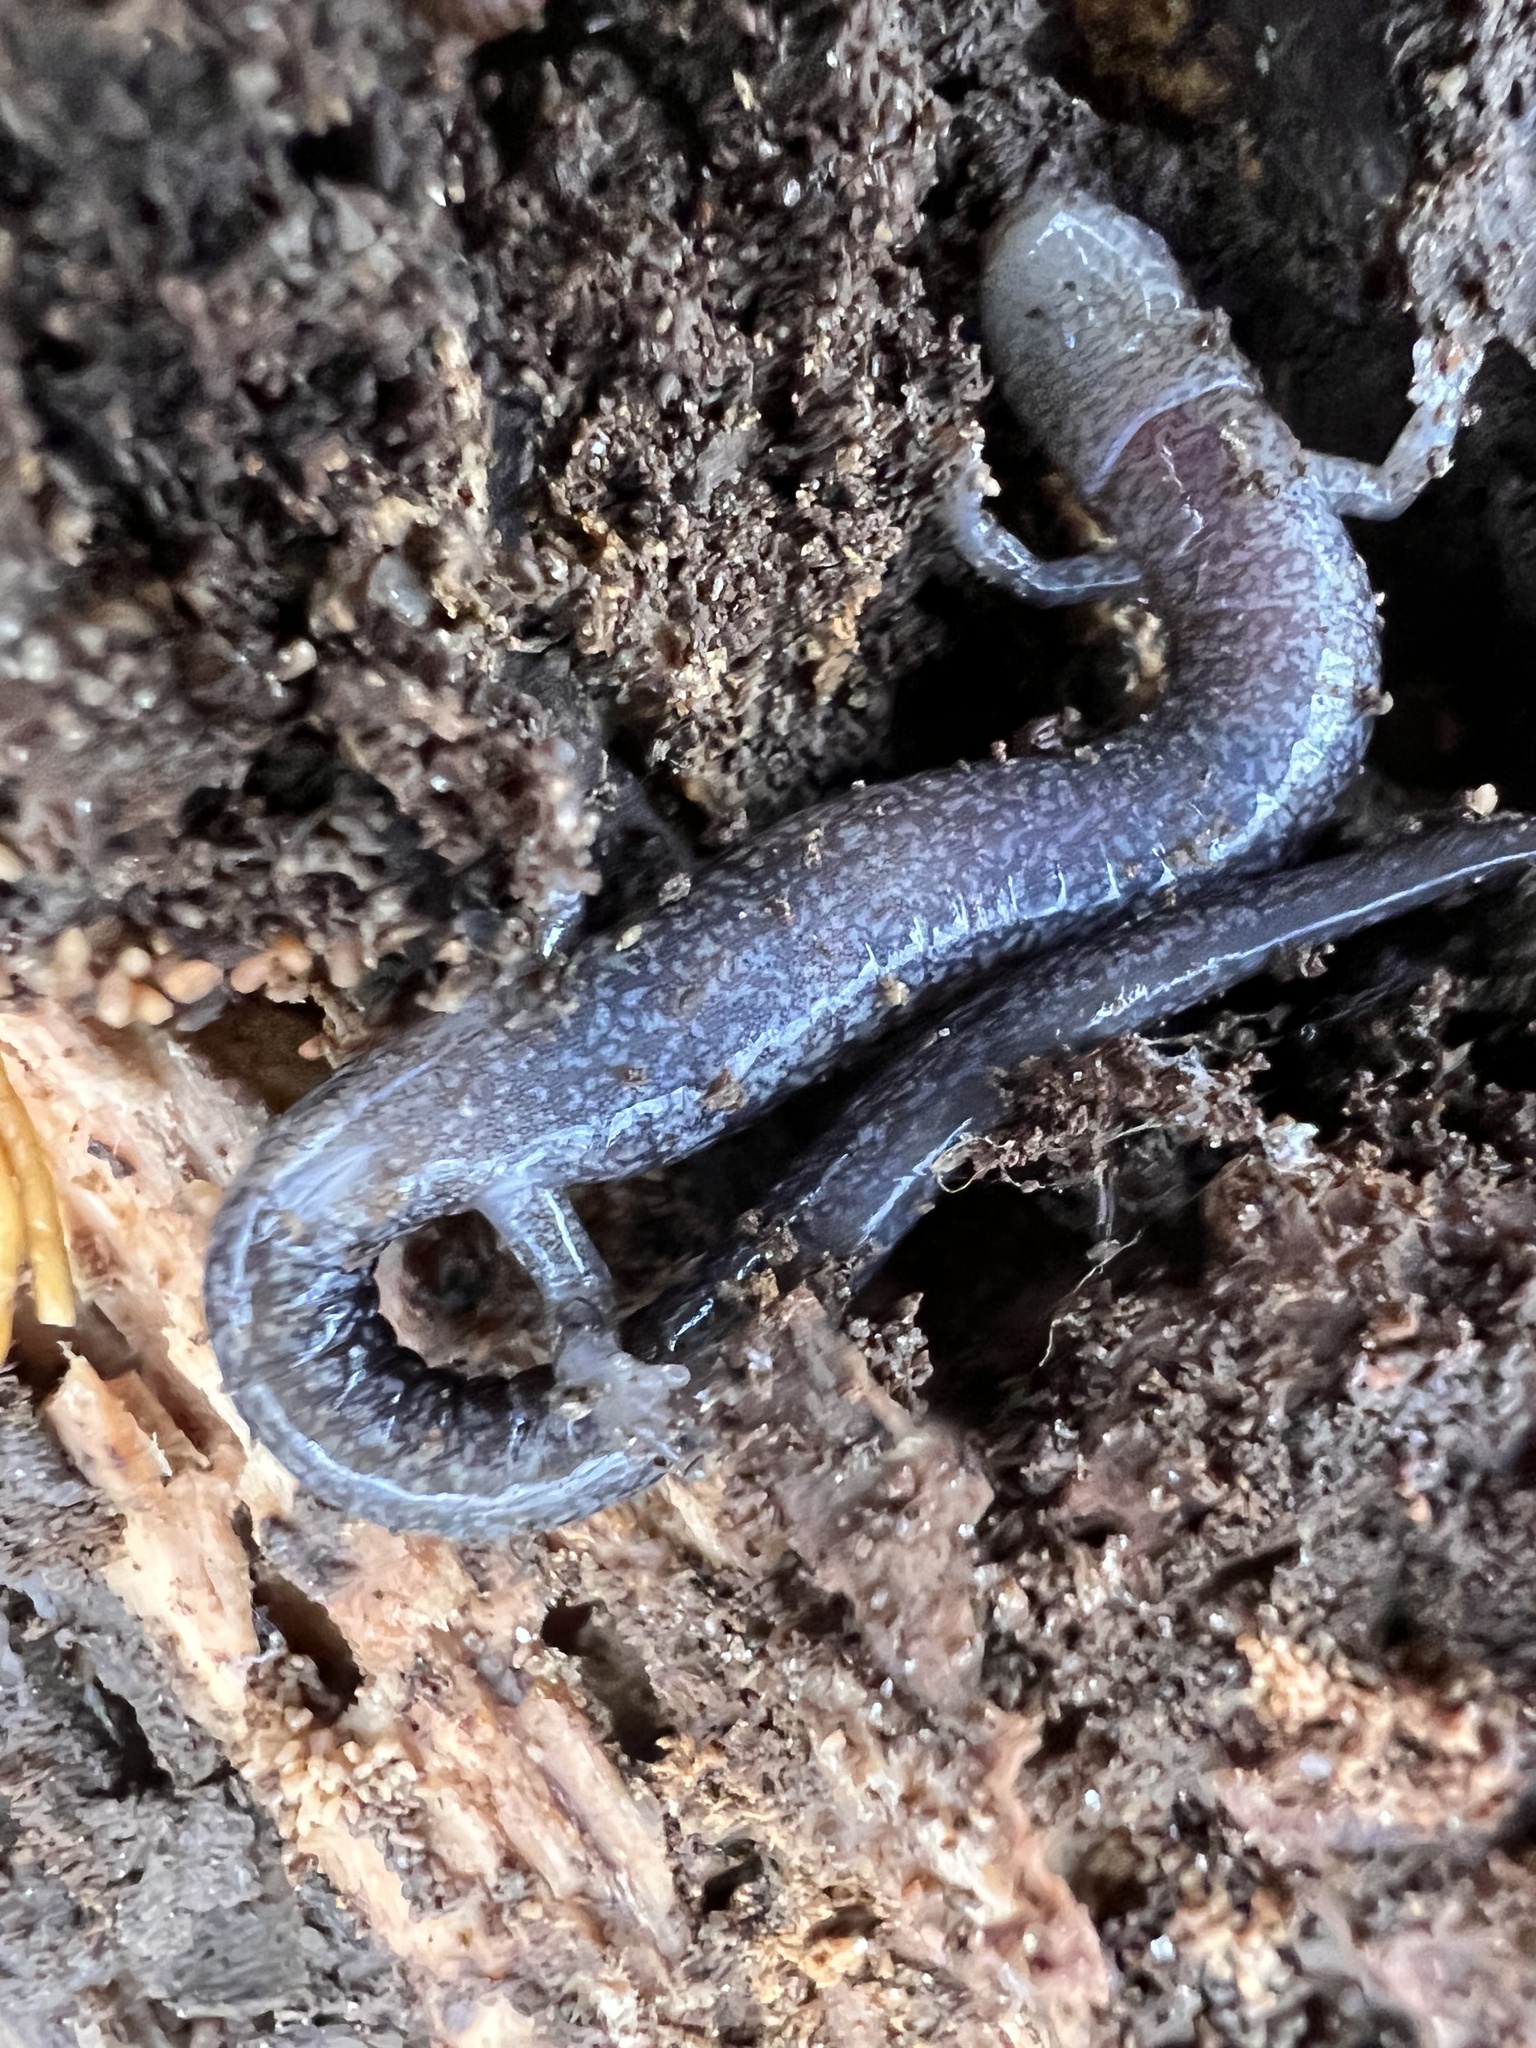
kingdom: Animalia
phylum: Chordata
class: Amphibia
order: Caudata
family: Plethodontidae
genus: Plethodon
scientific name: Plethodon cinereus
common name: Redback salamander
